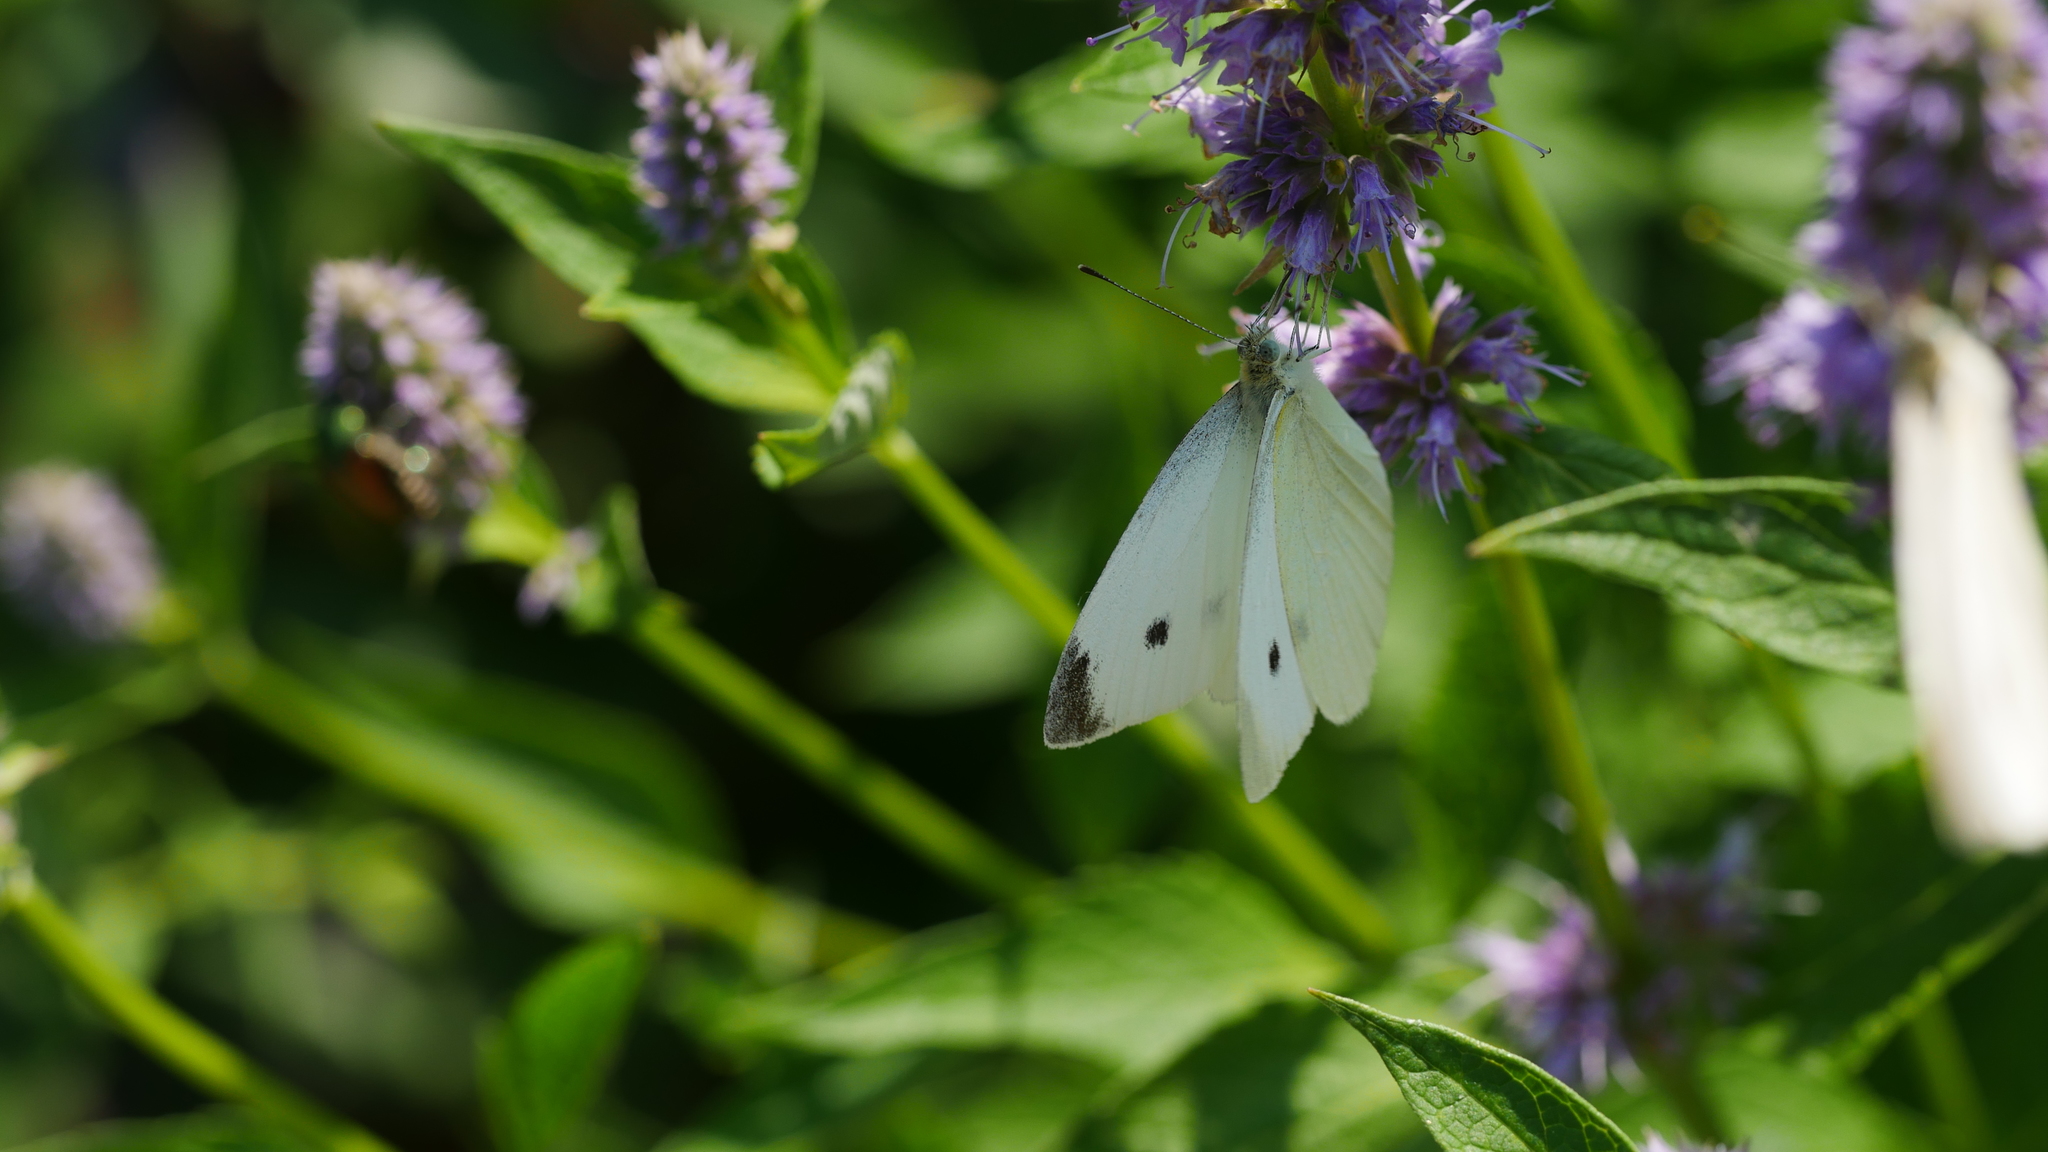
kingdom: Animalia
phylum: Arthropoda
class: Insecta
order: Lepidoptera
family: Pieridae
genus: Pieris
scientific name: Pieris rapae
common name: Small white
